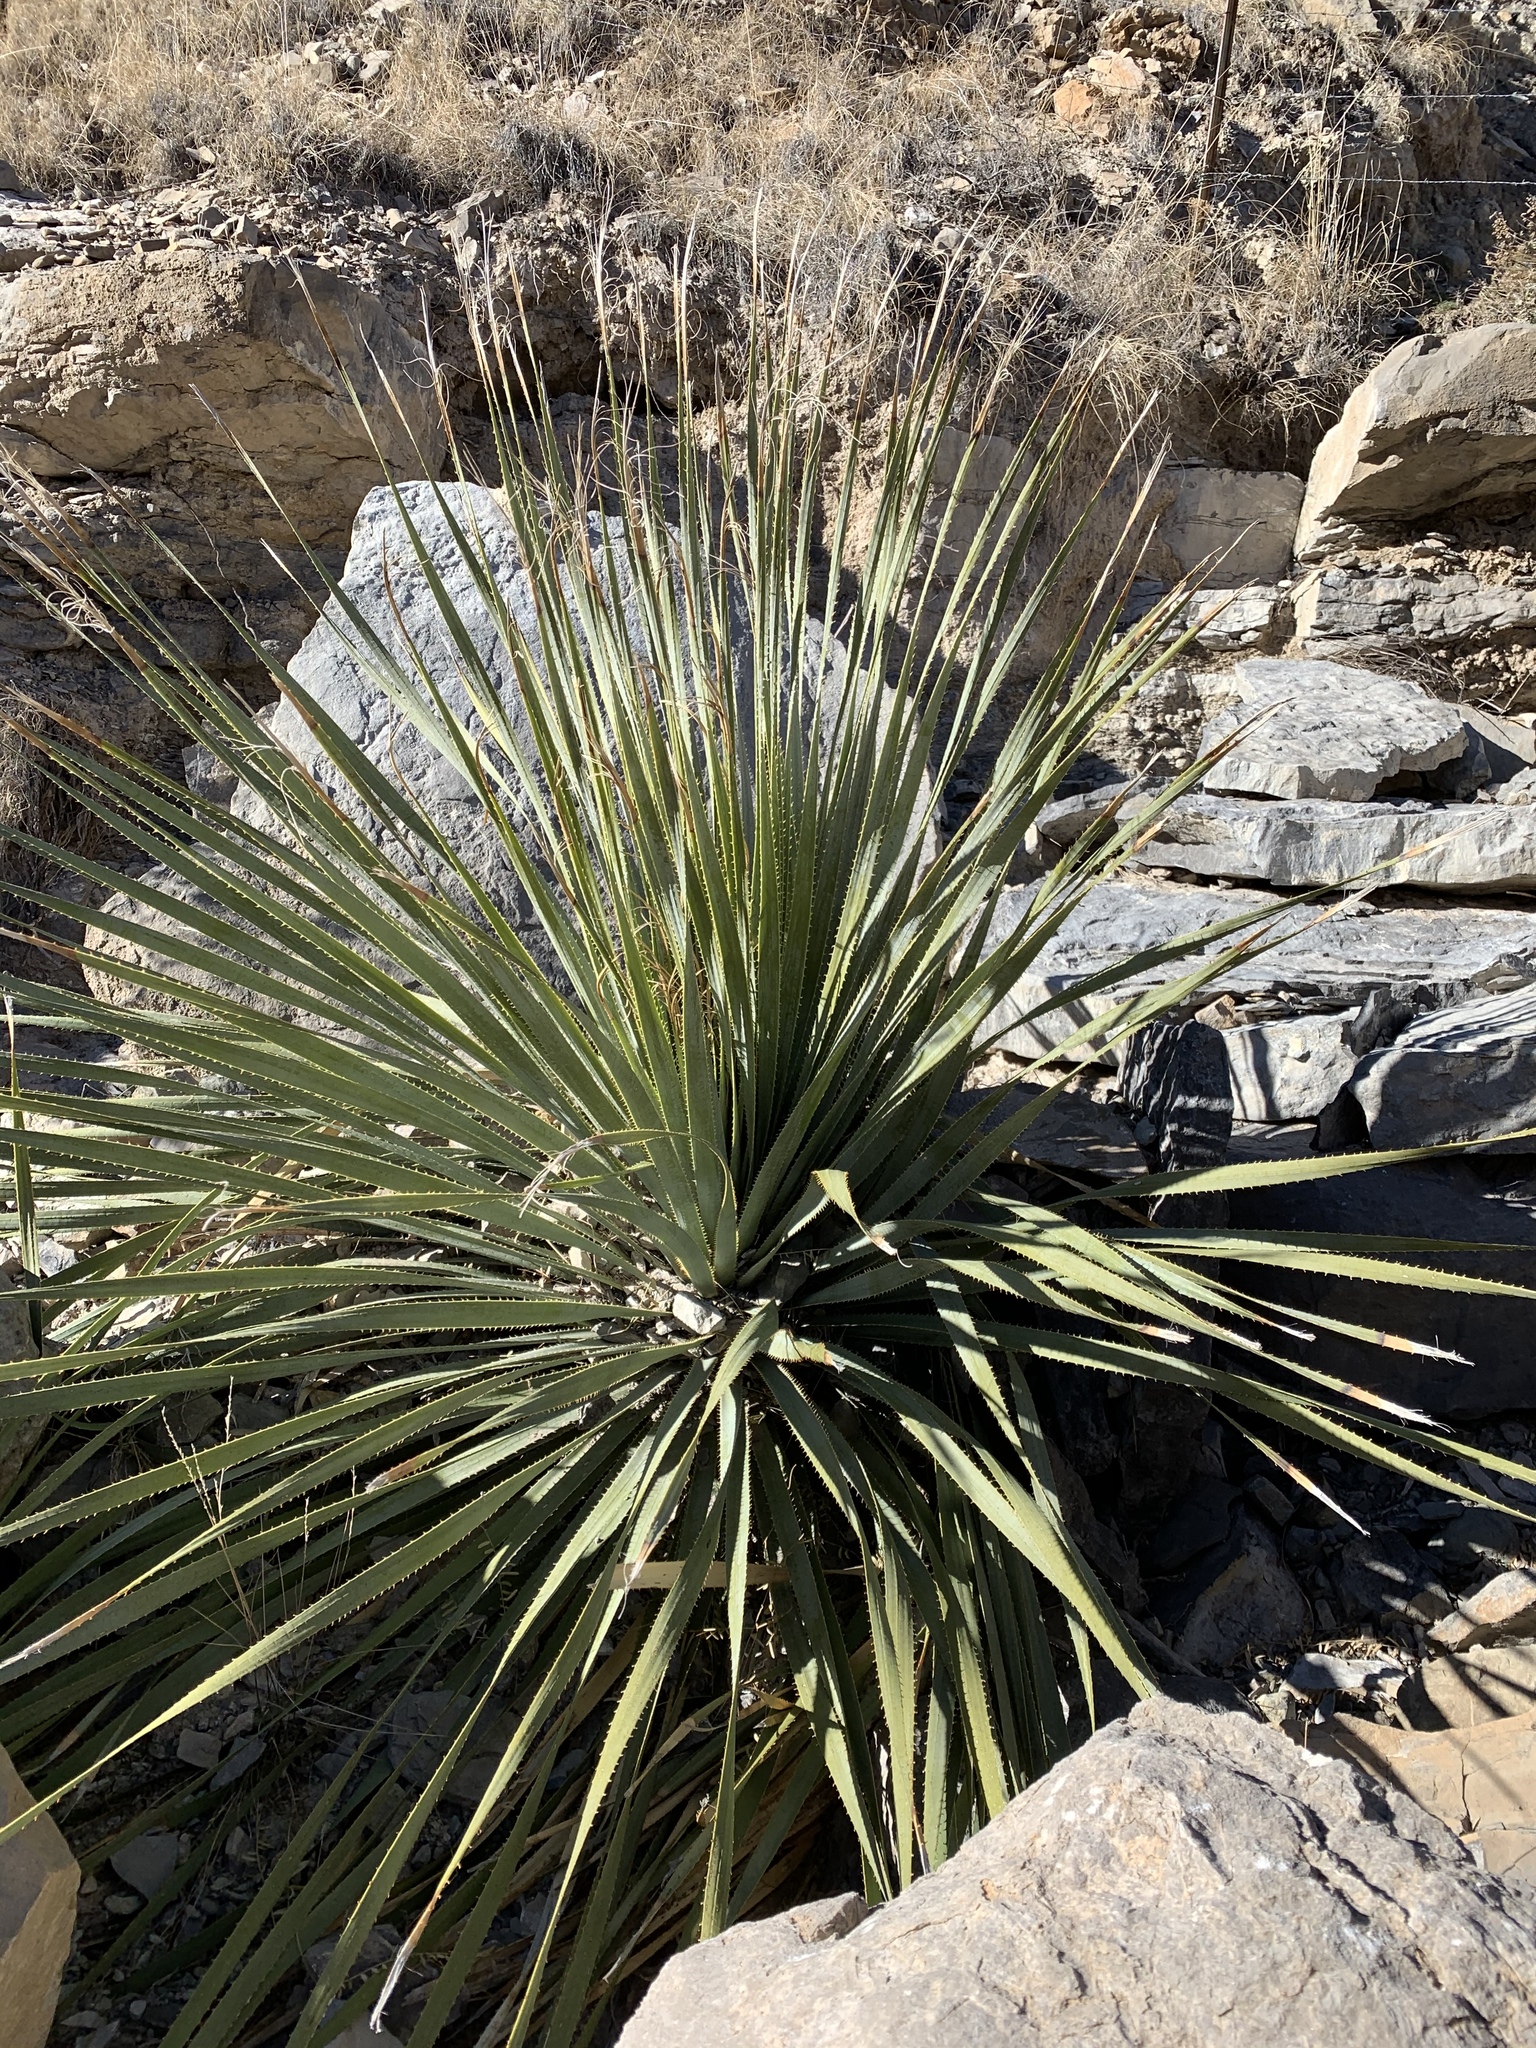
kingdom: Plantae
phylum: Tracheophyta
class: Liliopsida
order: Asparagales
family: Asparagaceae
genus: Dasylirion
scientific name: Dasylirion wheeleri
